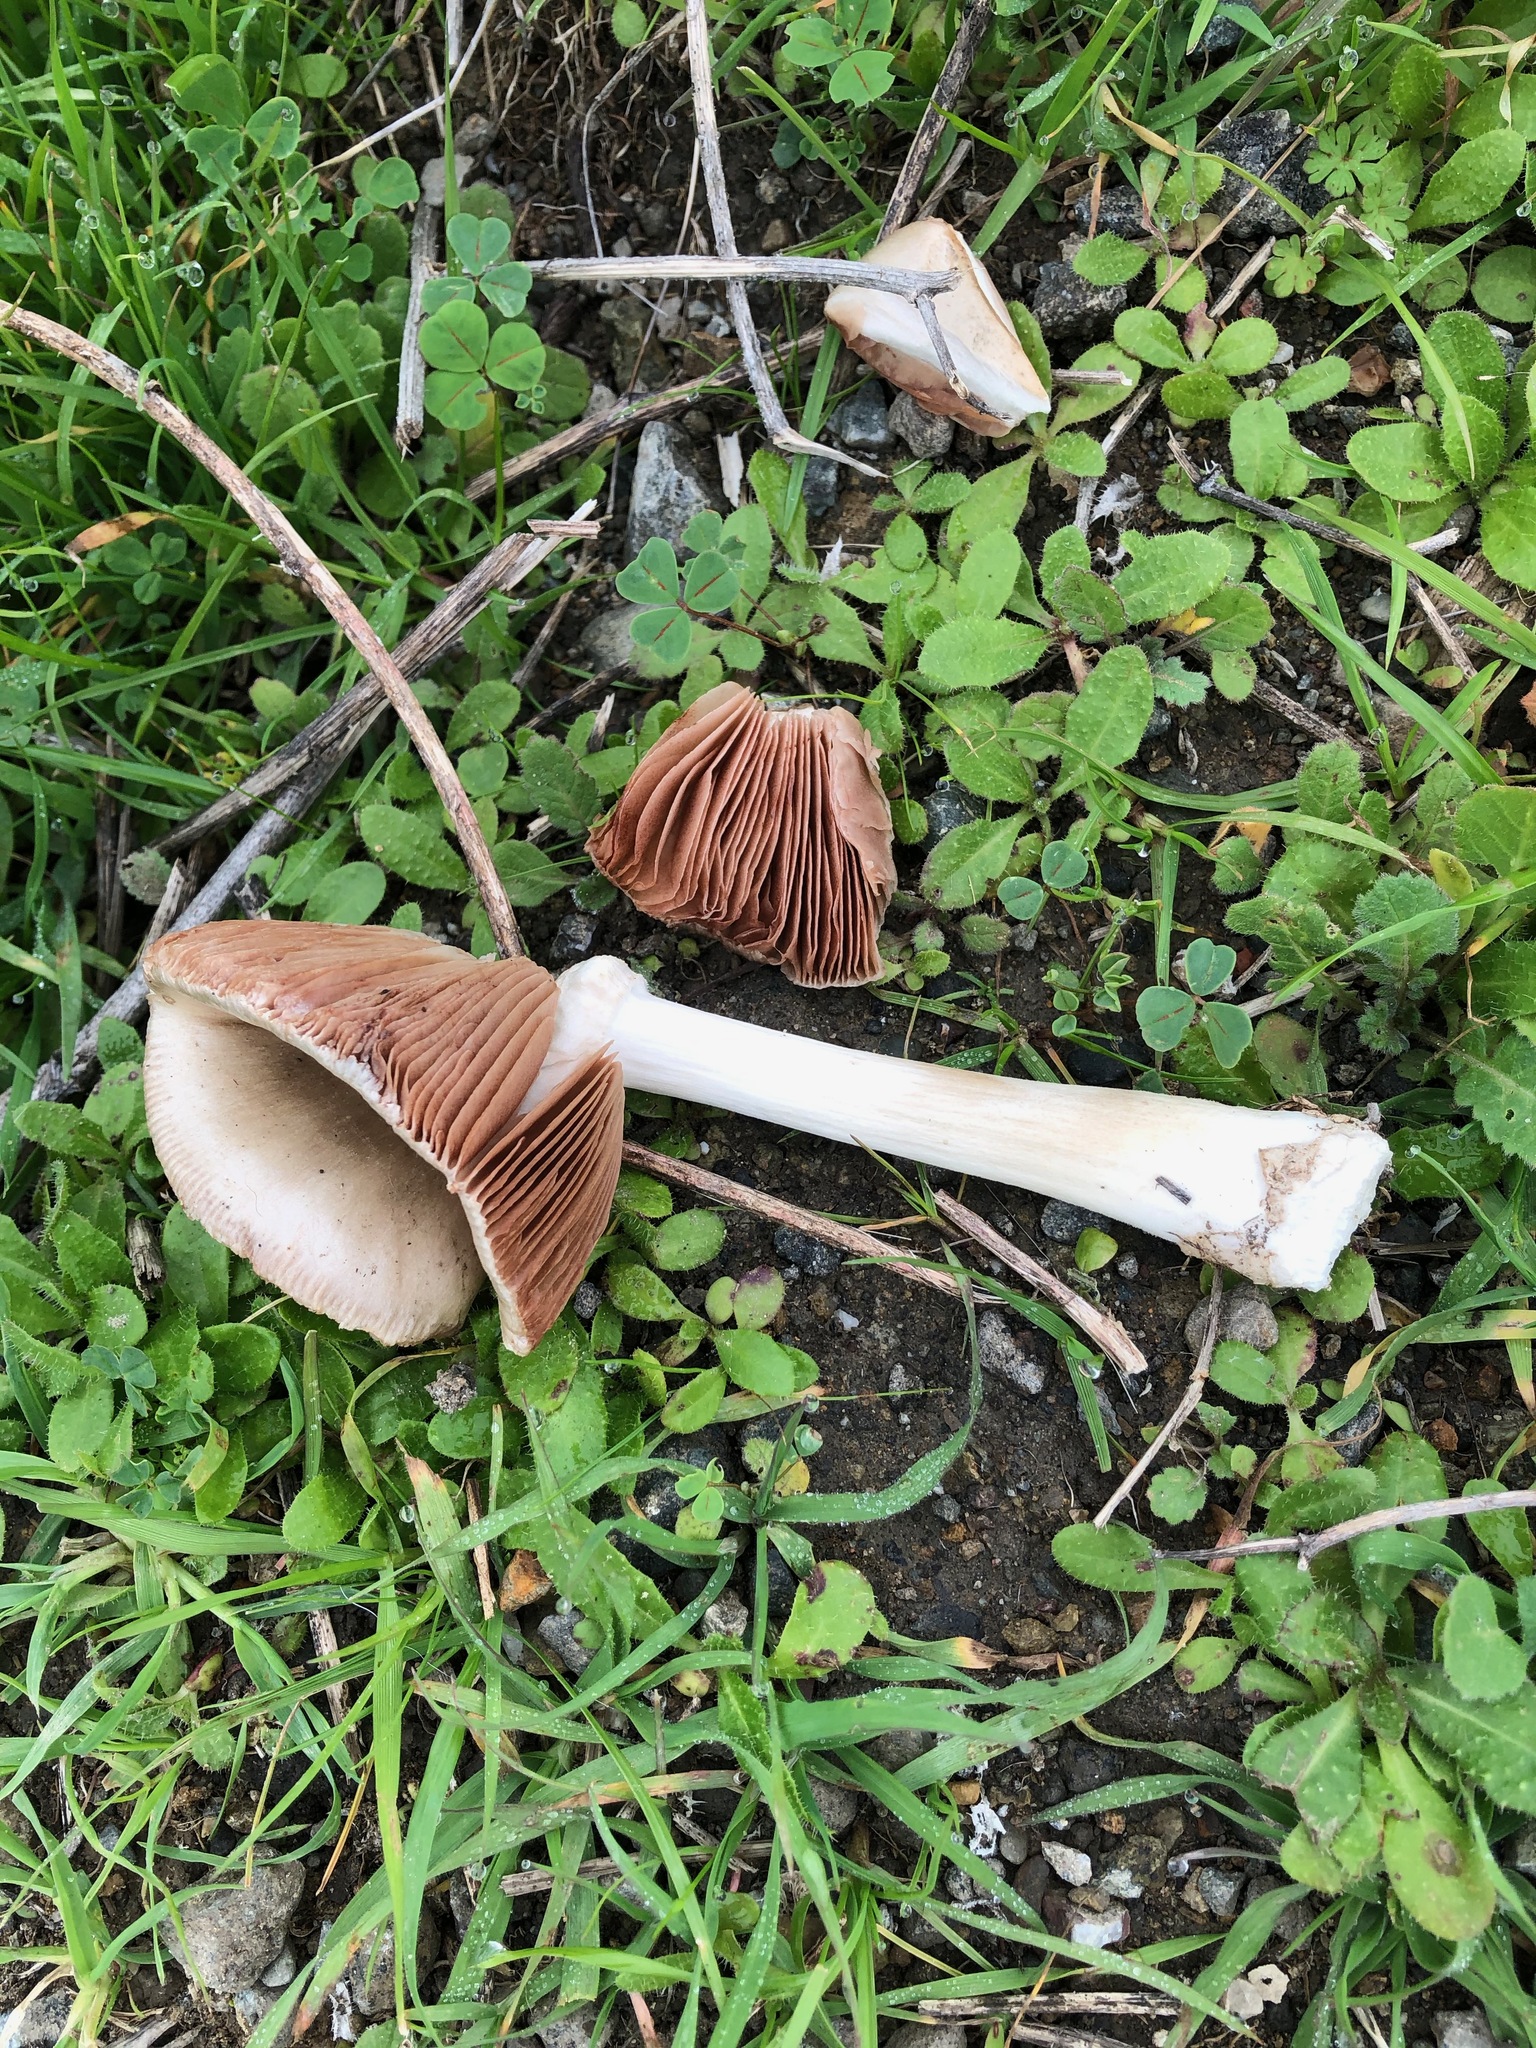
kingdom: Fungi
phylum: Basidiomycota
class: Agaricomycetes
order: Agaricales
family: Pluteaceae
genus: Volvopluteus
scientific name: Volvopluteus gloiocephalus
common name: Stubble rosegill
